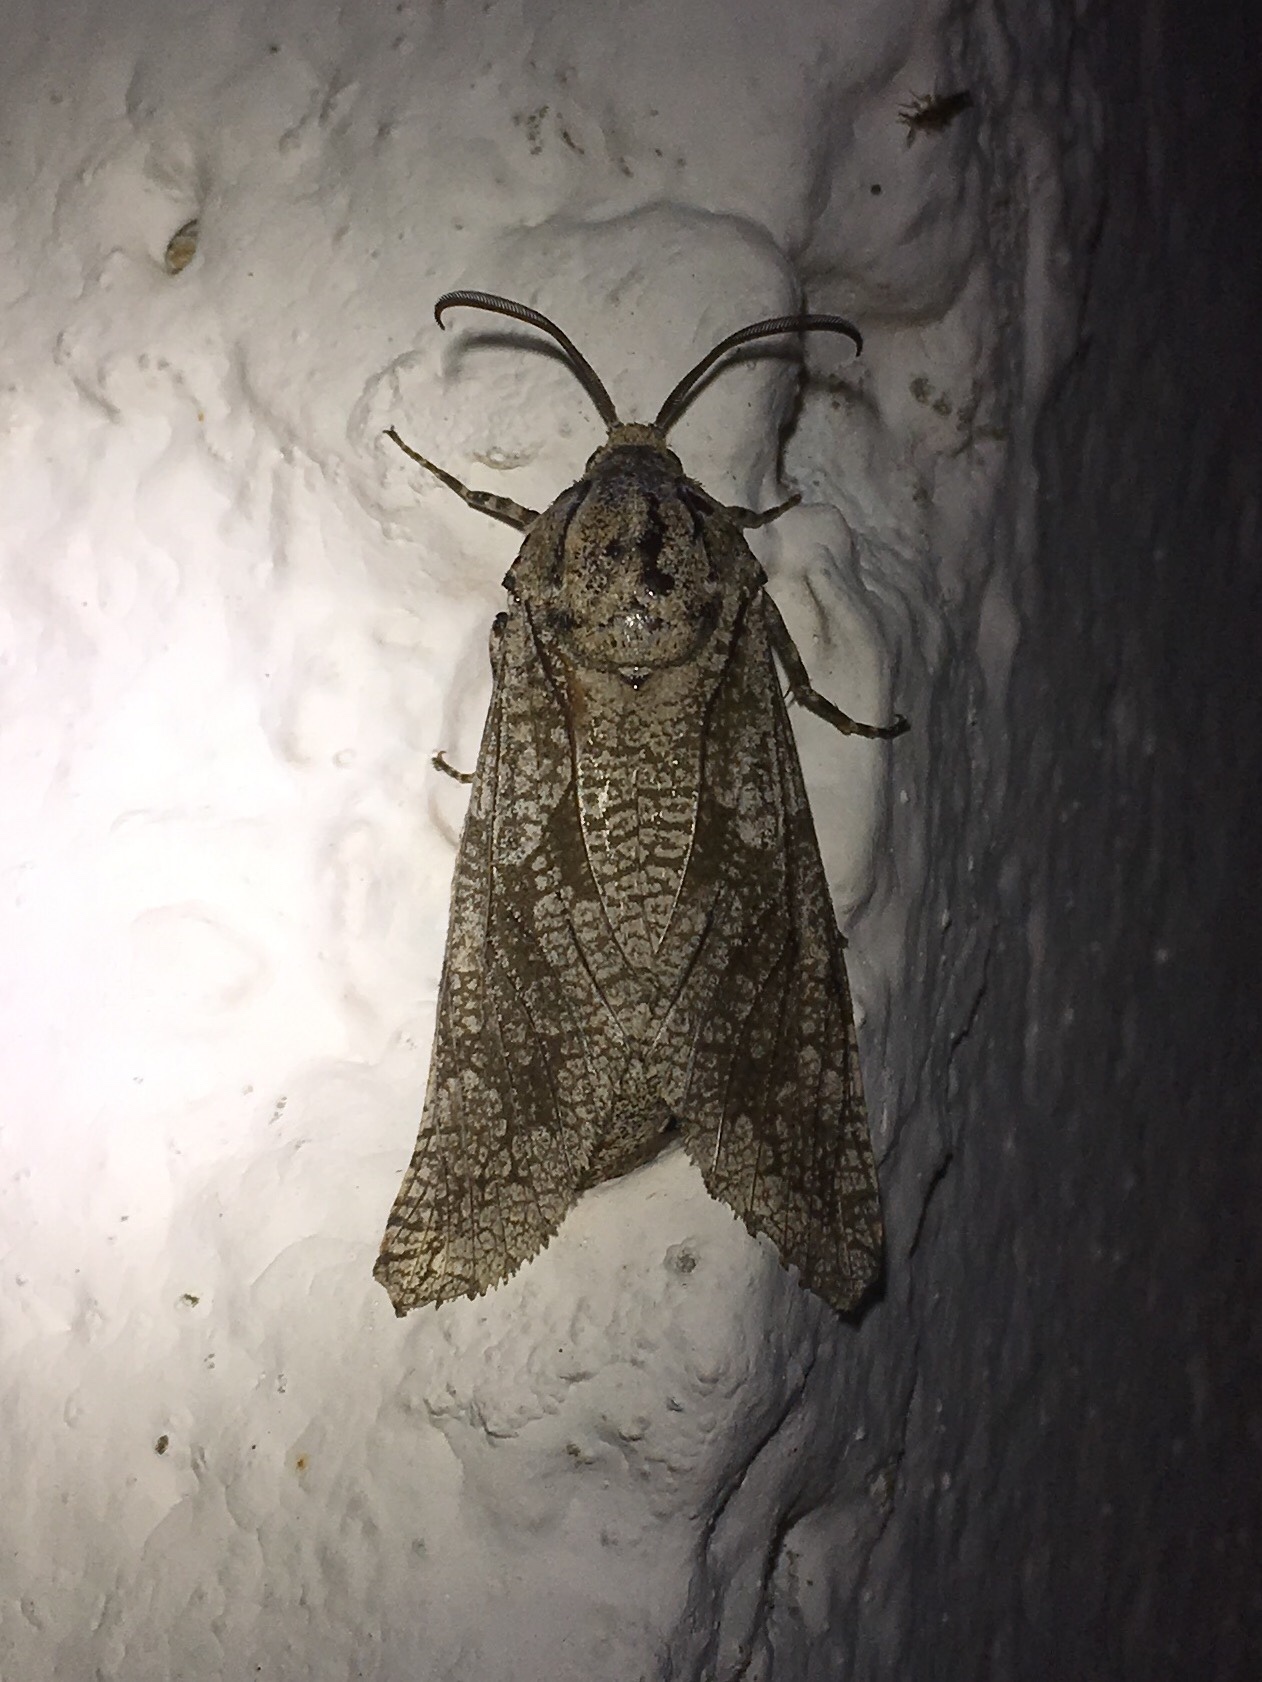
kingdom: Animalia
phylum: Arthropoda
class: Insecta
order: Lepidoptera
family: Cossidae
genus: Prionoxystus
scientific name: Prionoxystus robiniae
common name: Carpenterworm
